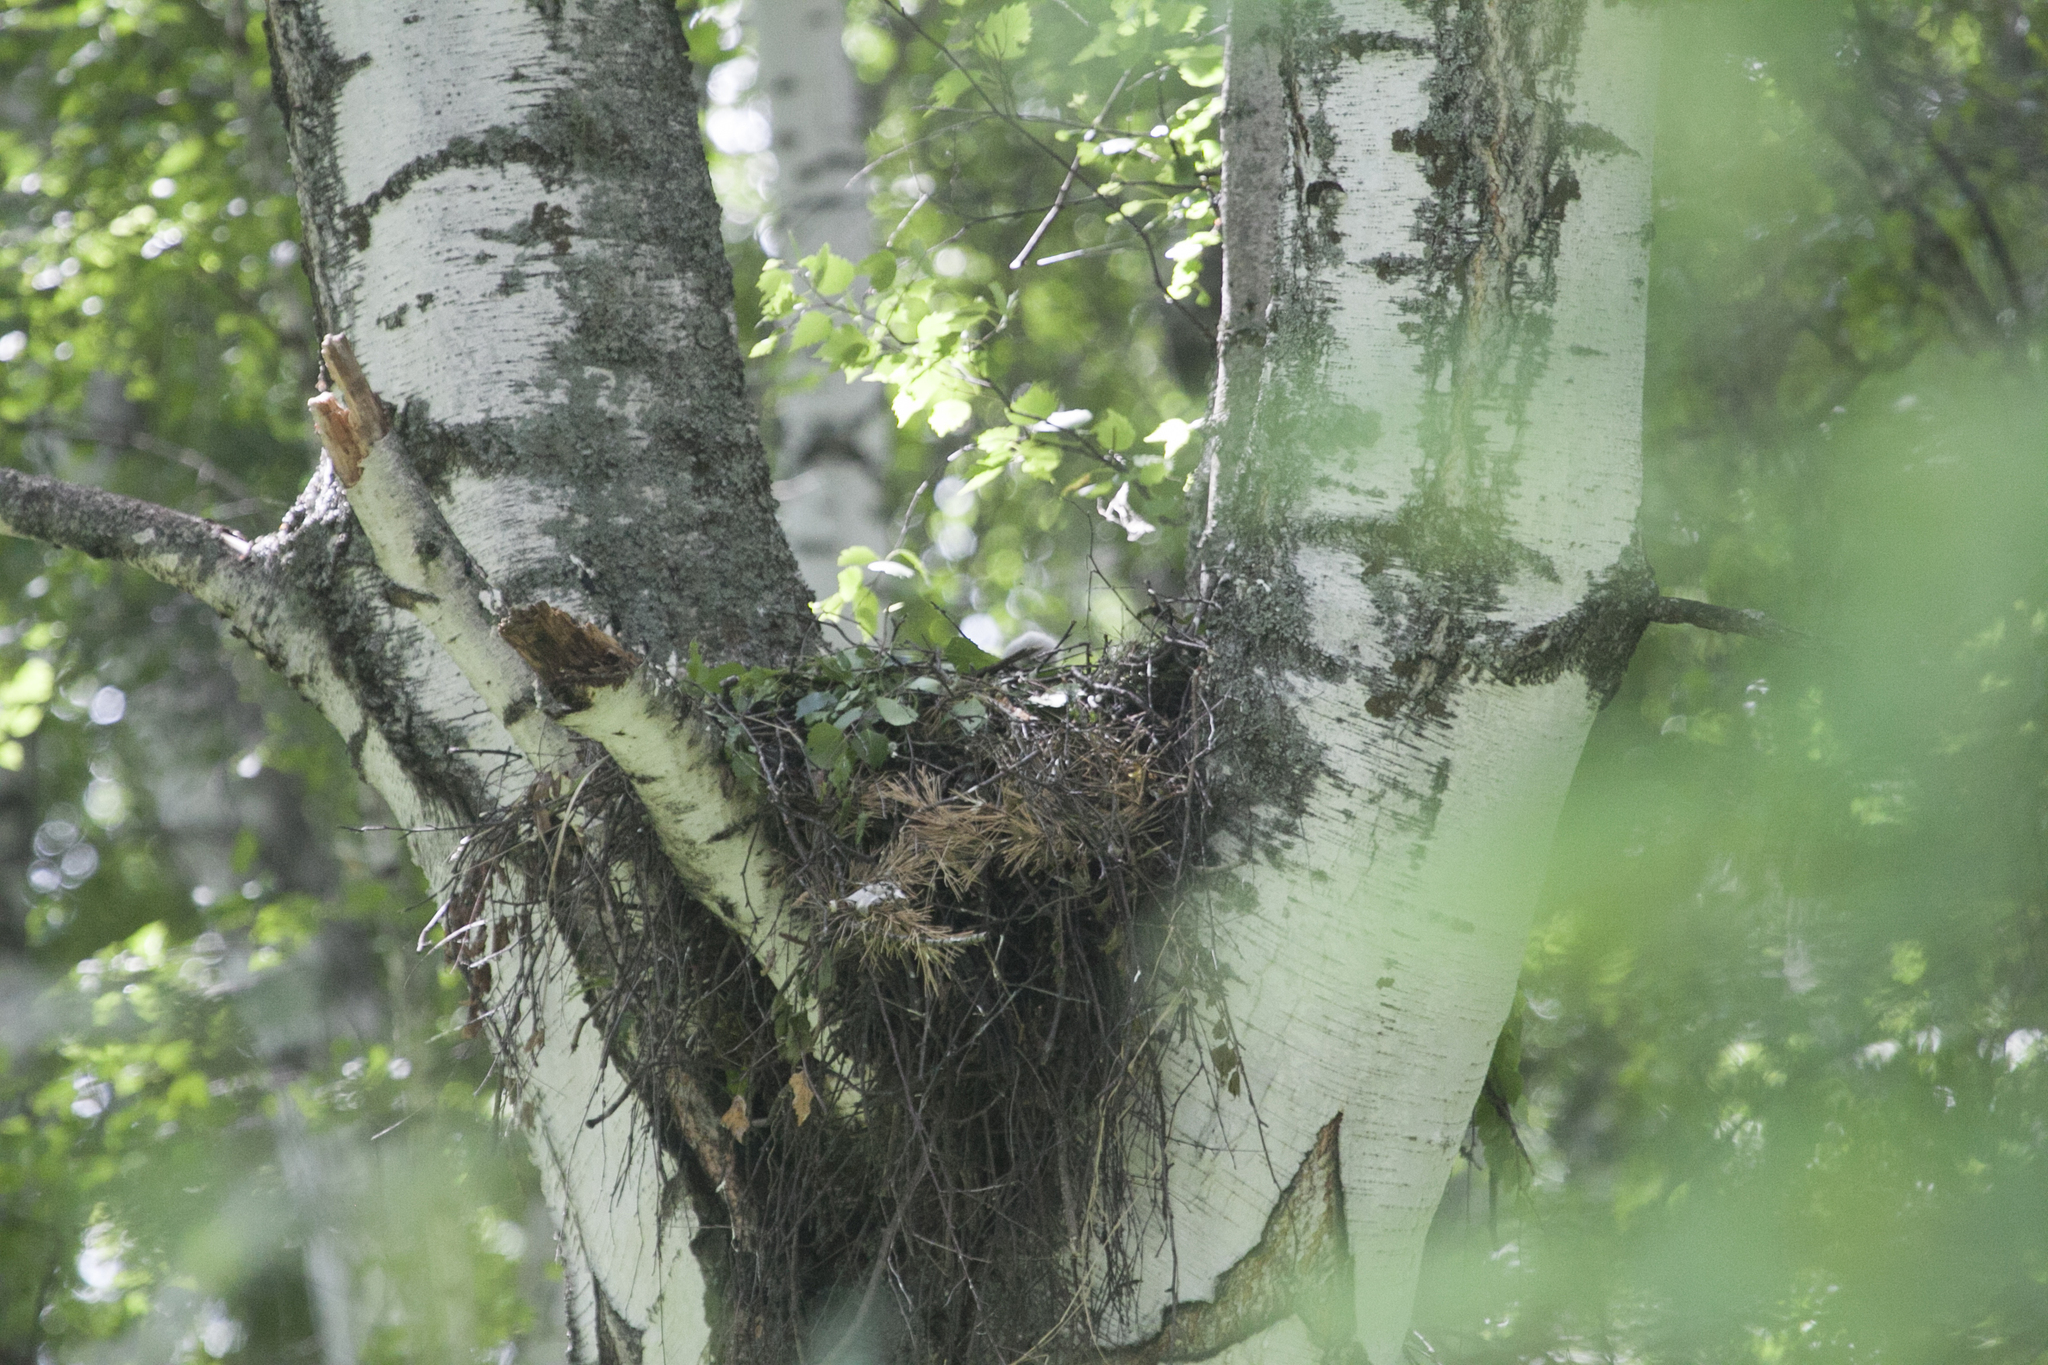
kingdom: Animalia
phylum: Chordata
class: Aves
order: Accipitriformes
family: Accipitridae
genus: Buteo
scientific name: Buteo buteo
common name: Common buzzard
